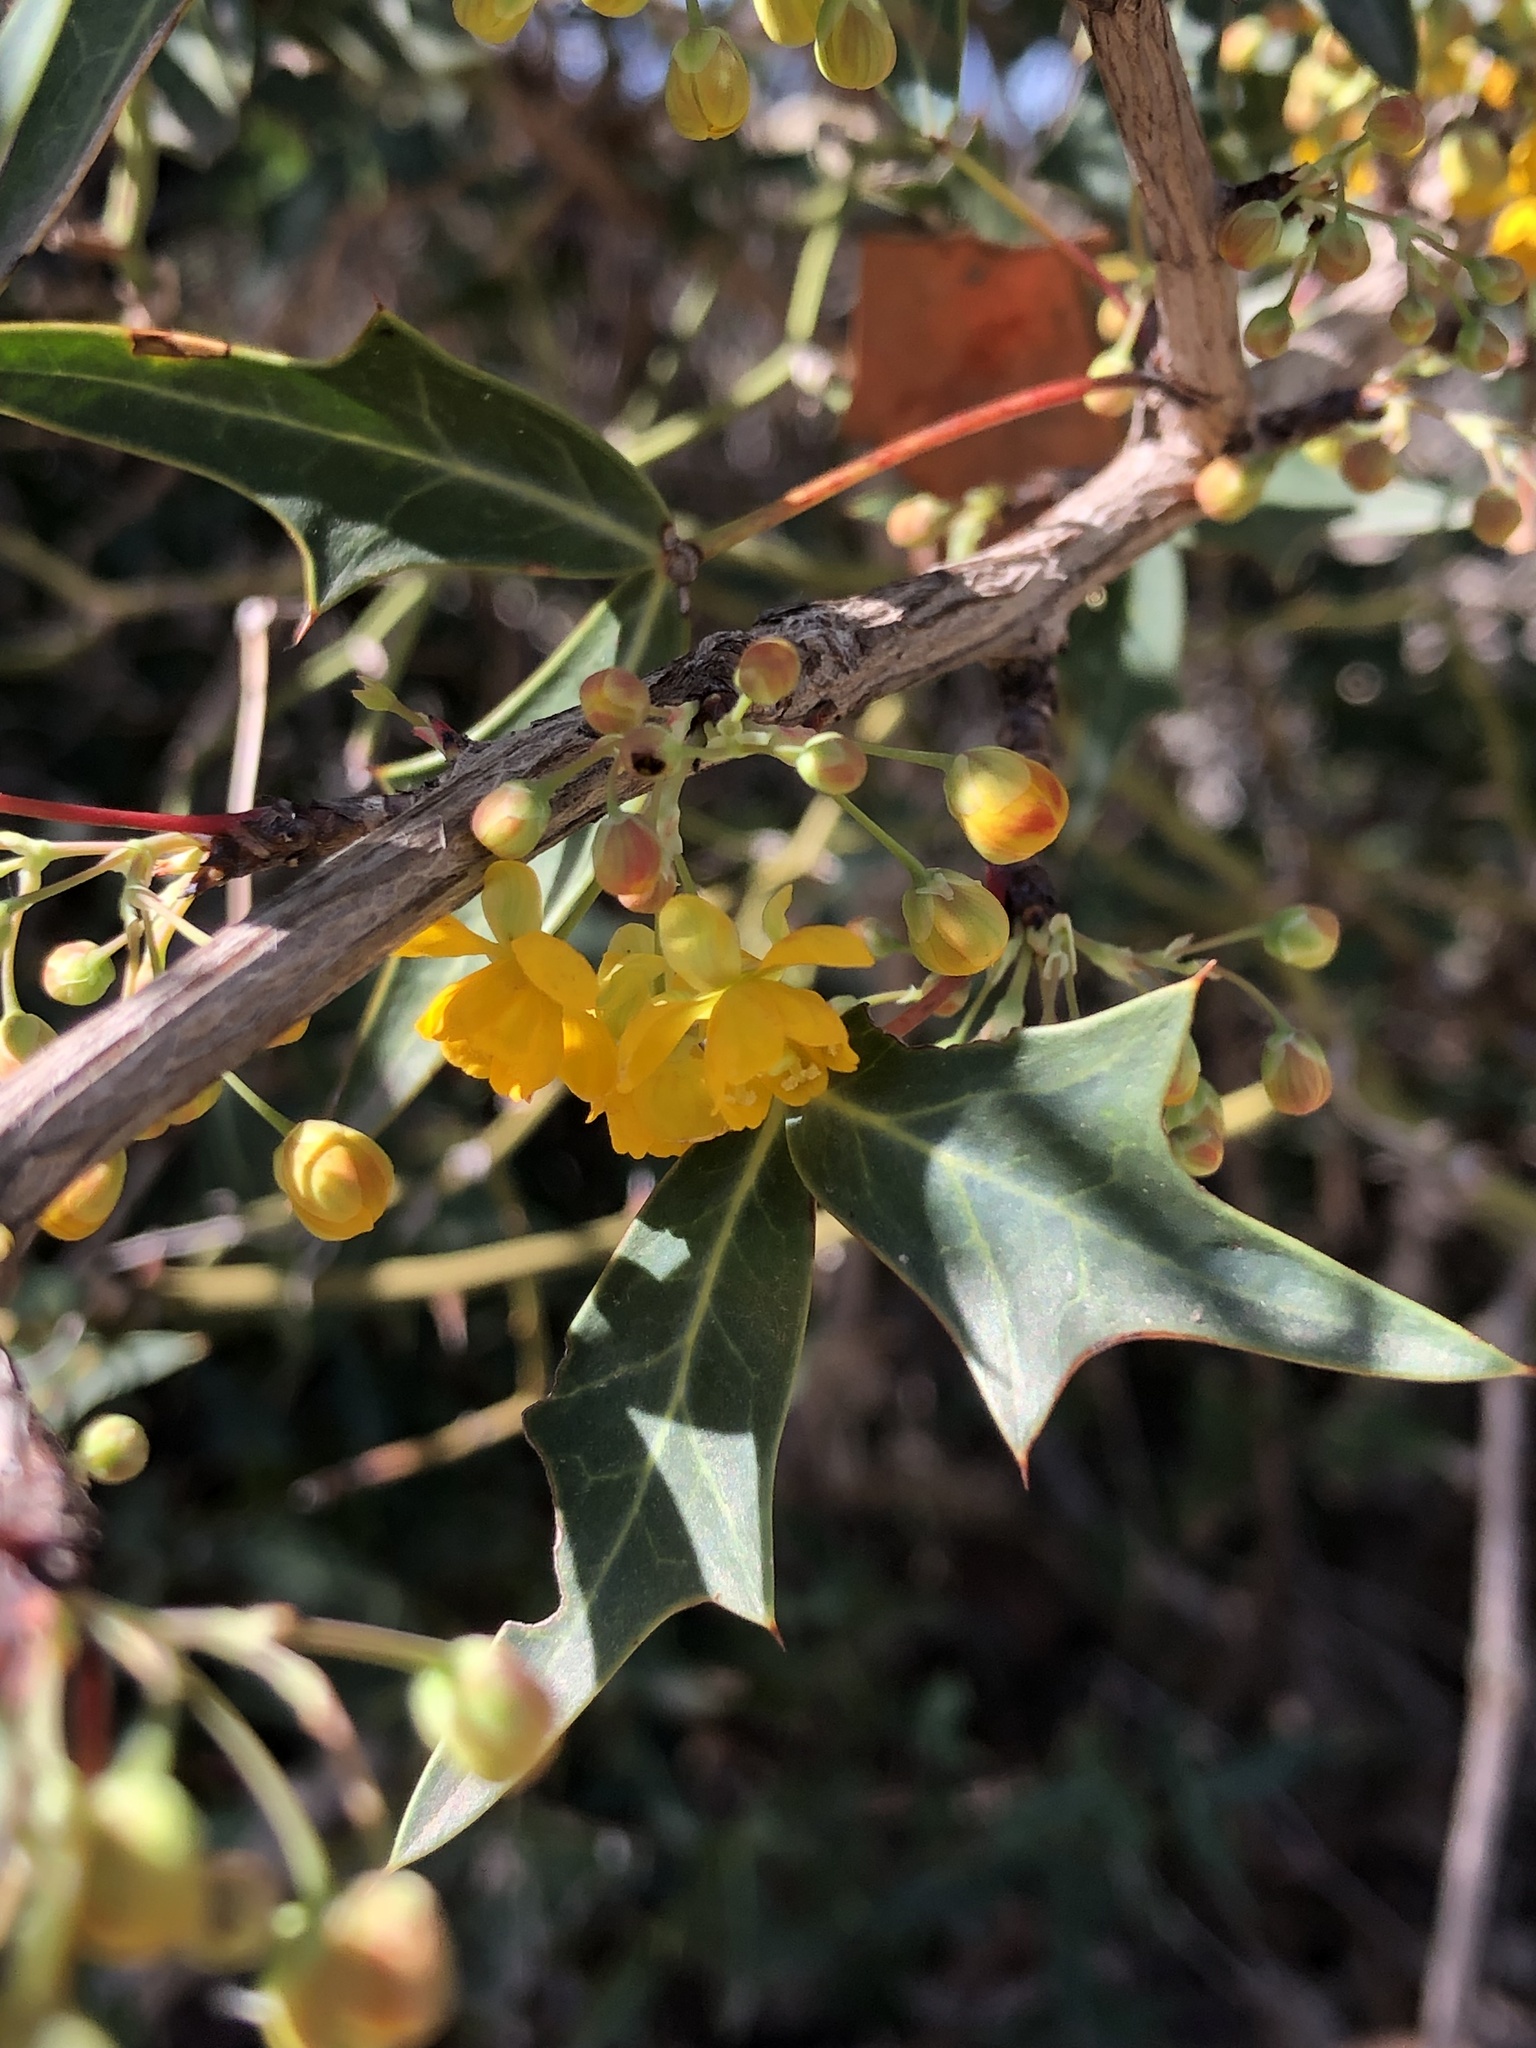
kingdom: Plantae
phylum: Tracheophyta
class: Magnoliopsida
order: Ranunculales
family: Berberidaceae
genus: Alloberberis
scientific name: Alloberberis trifoliolata
